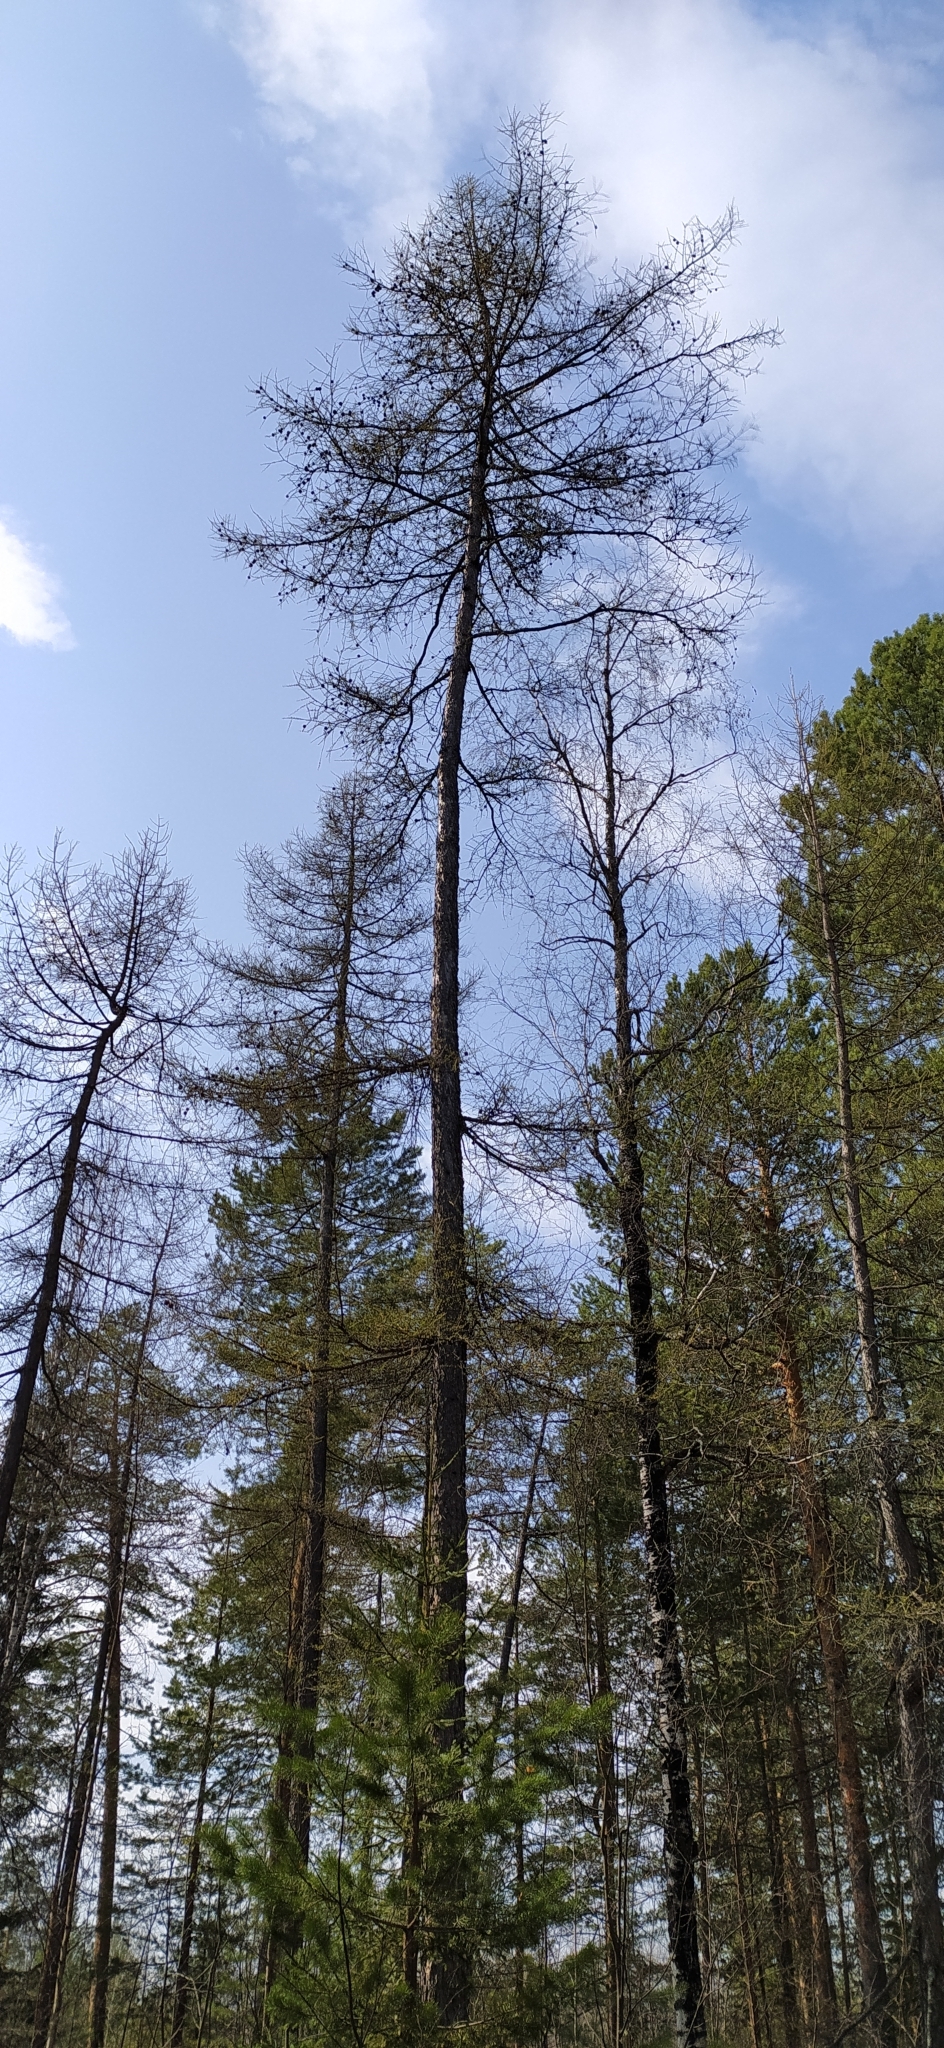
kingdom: Plantae
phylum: Tracheophyta
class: Pinopsida
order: Pinales
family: Pinaceae
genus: Larix
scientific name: Larix sibirica
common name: Siberian larch
